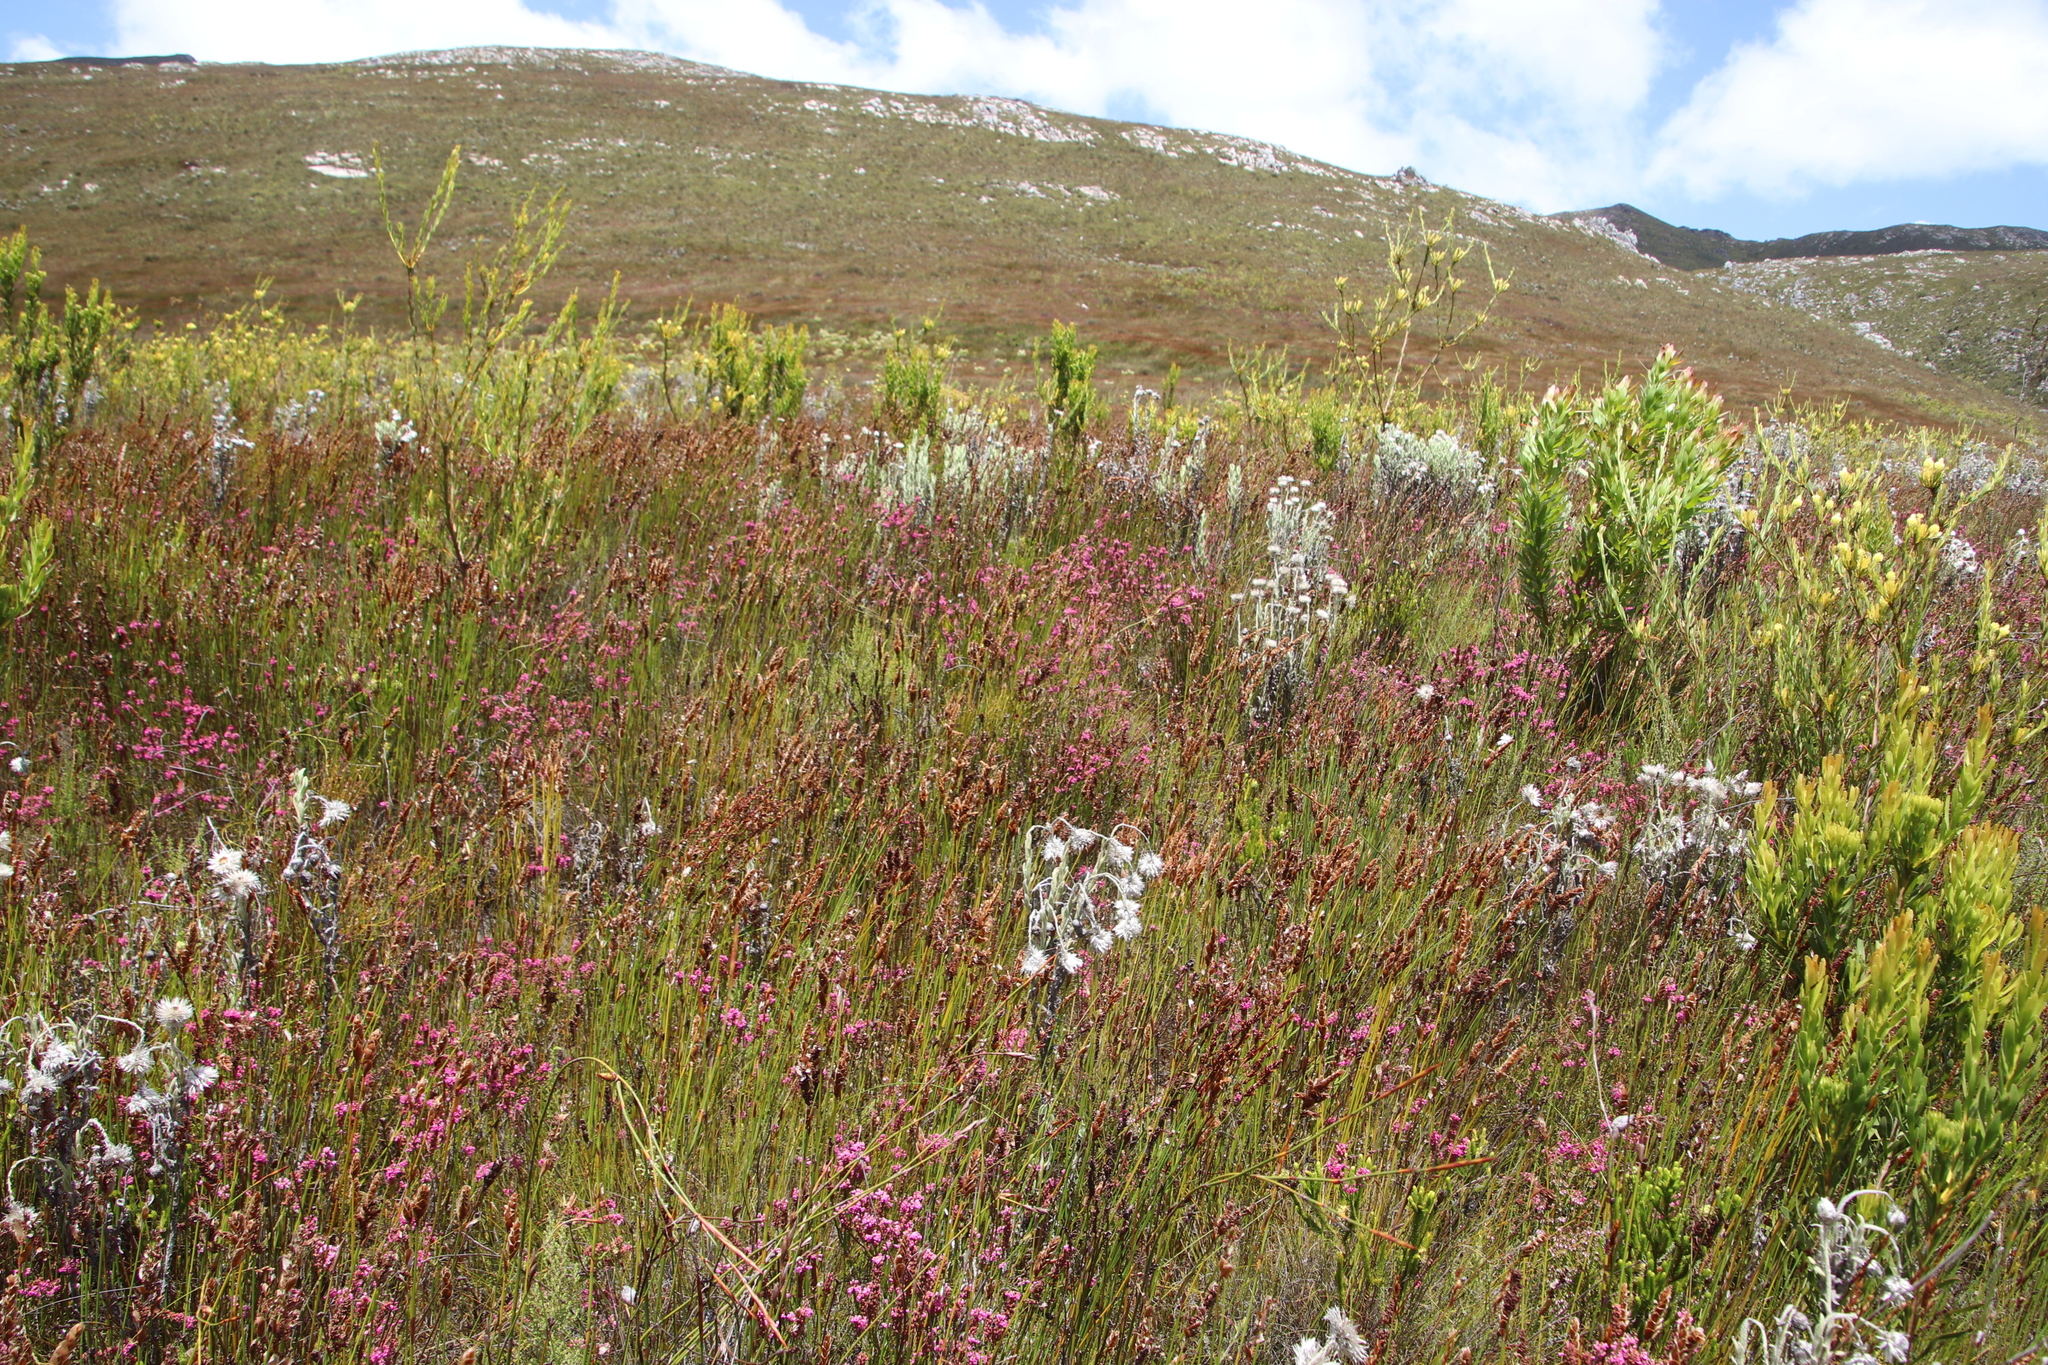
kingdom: Plantae
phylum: Tracheophyta
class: Magnoliopsida
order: Ericales
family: Ericaceae
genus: Erica
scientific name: Erica longiaristata
